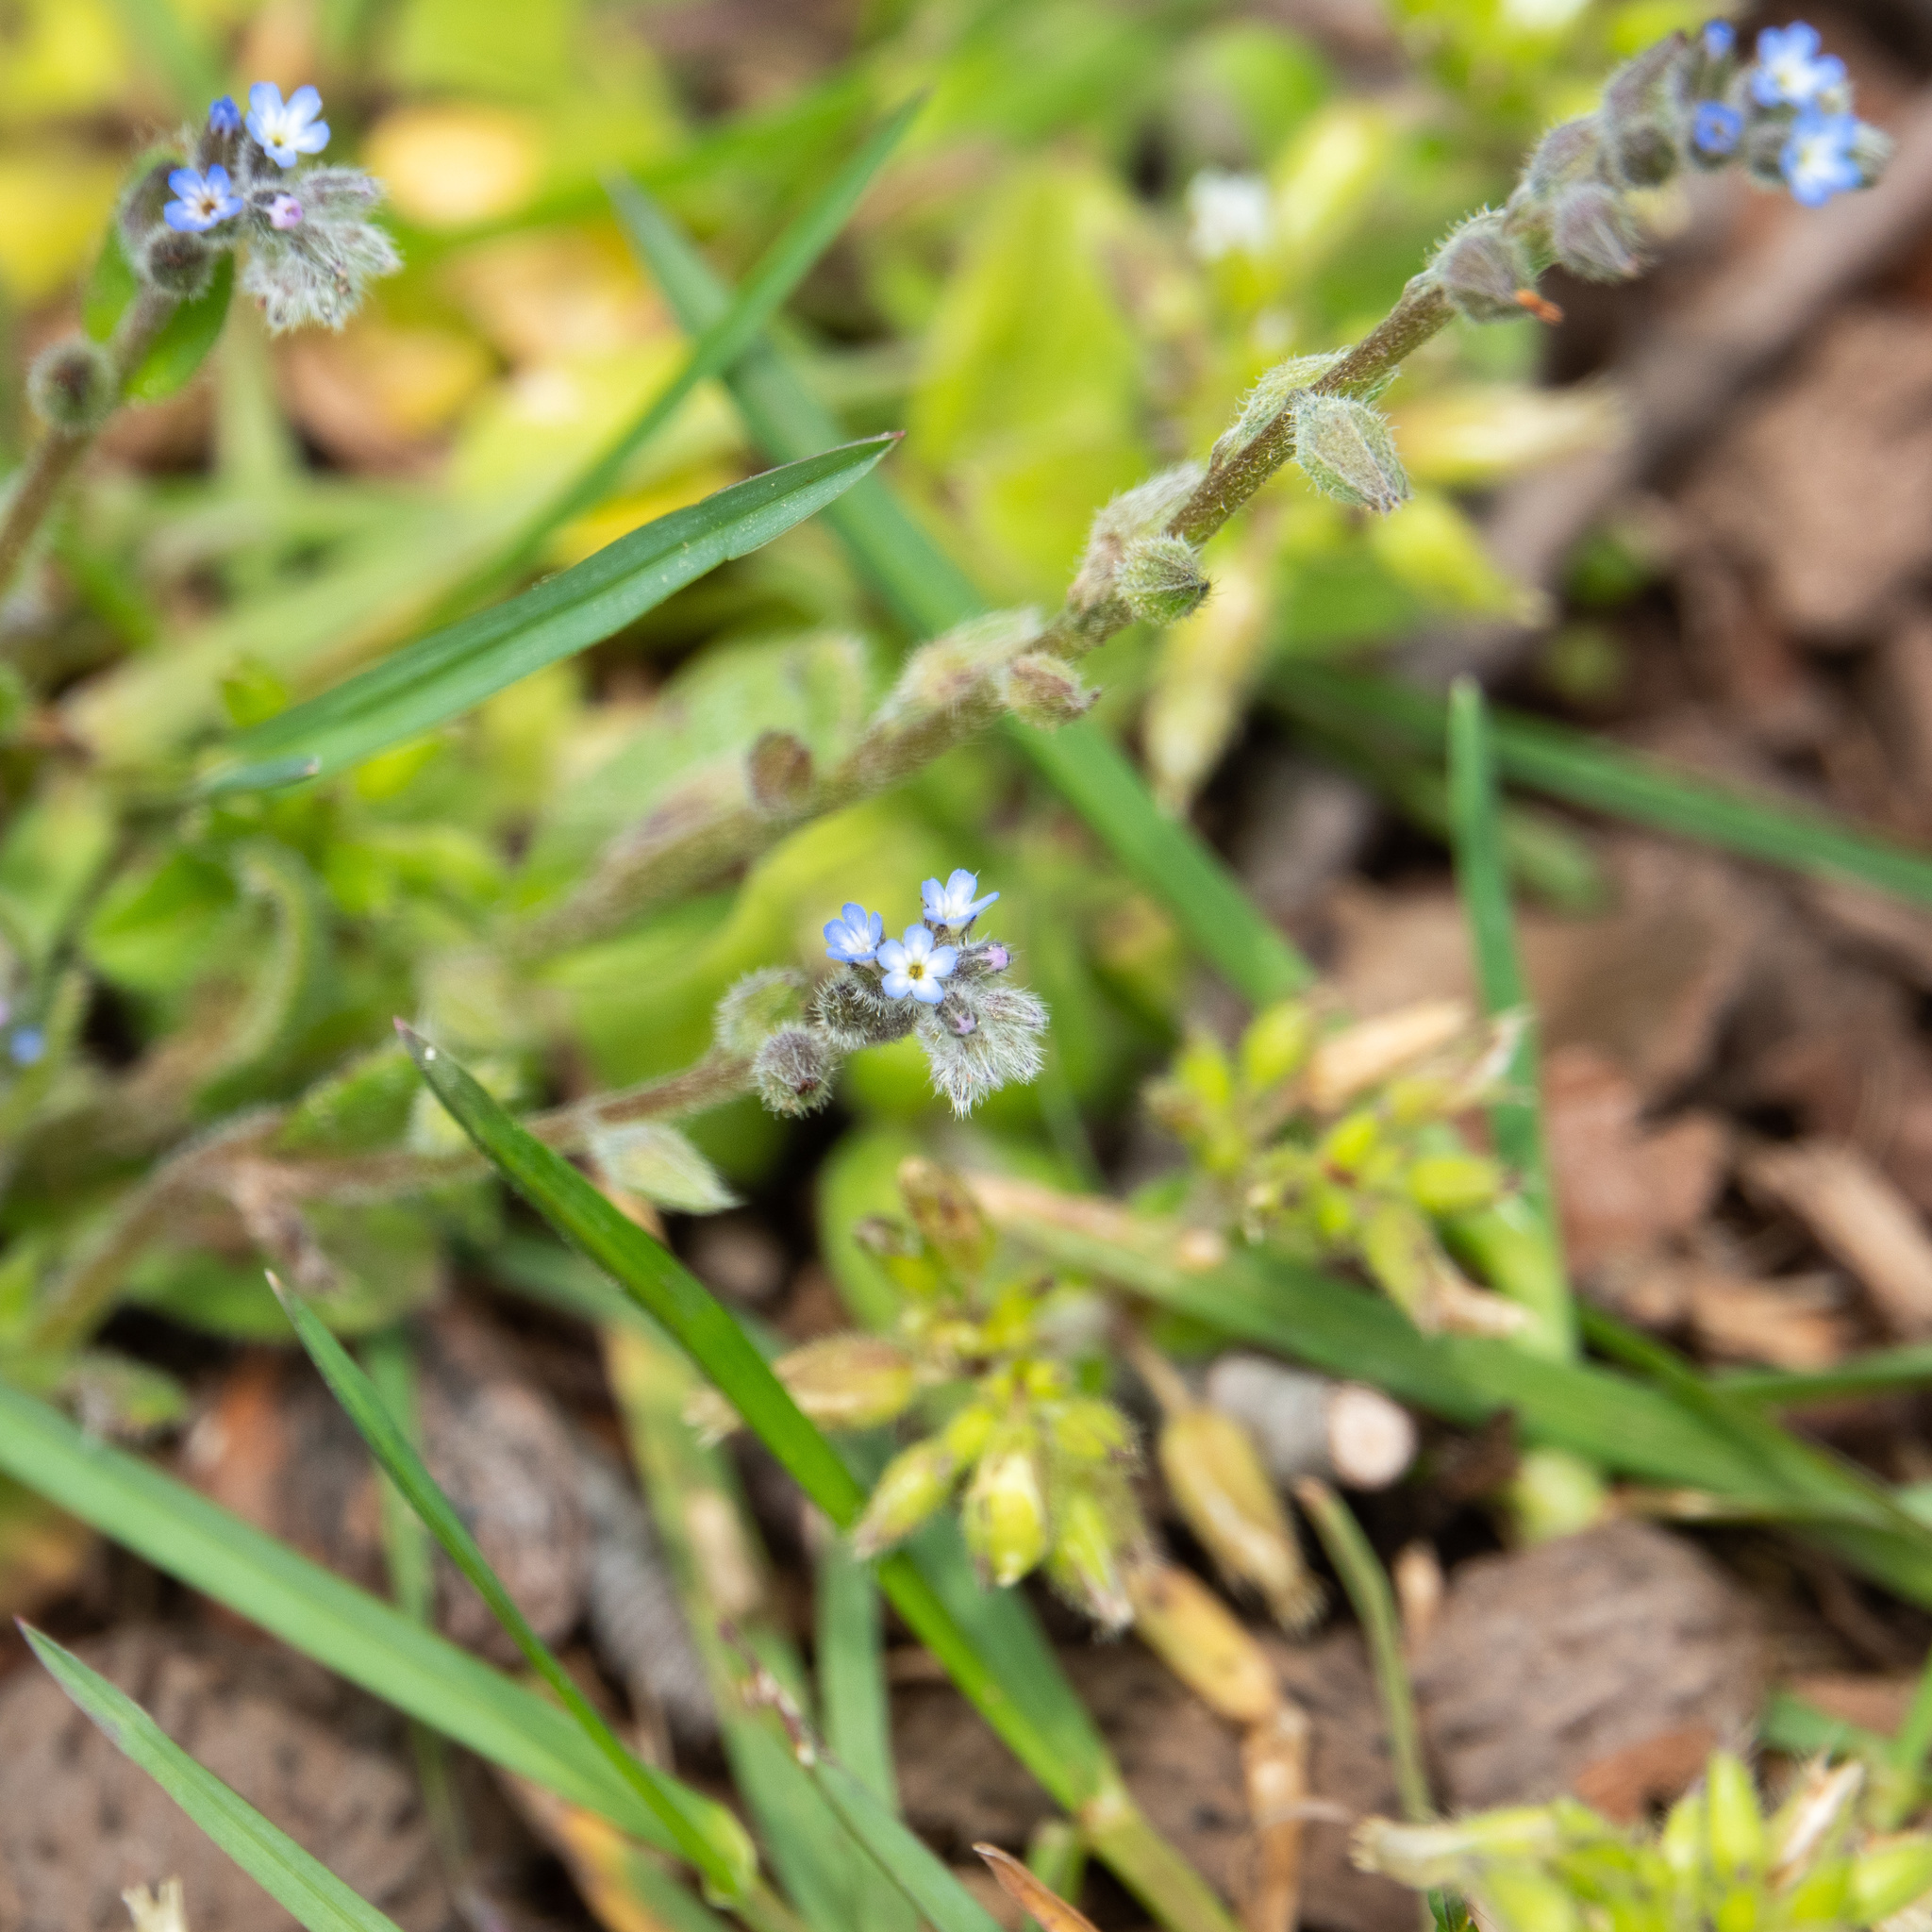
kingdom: Plantae
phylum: Tracheophyta
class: Magnoliopsida
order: Boraginales
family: Boraginaceae
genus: Myosotis
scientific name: Myosotis stricta
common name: Strict forget-me-not
